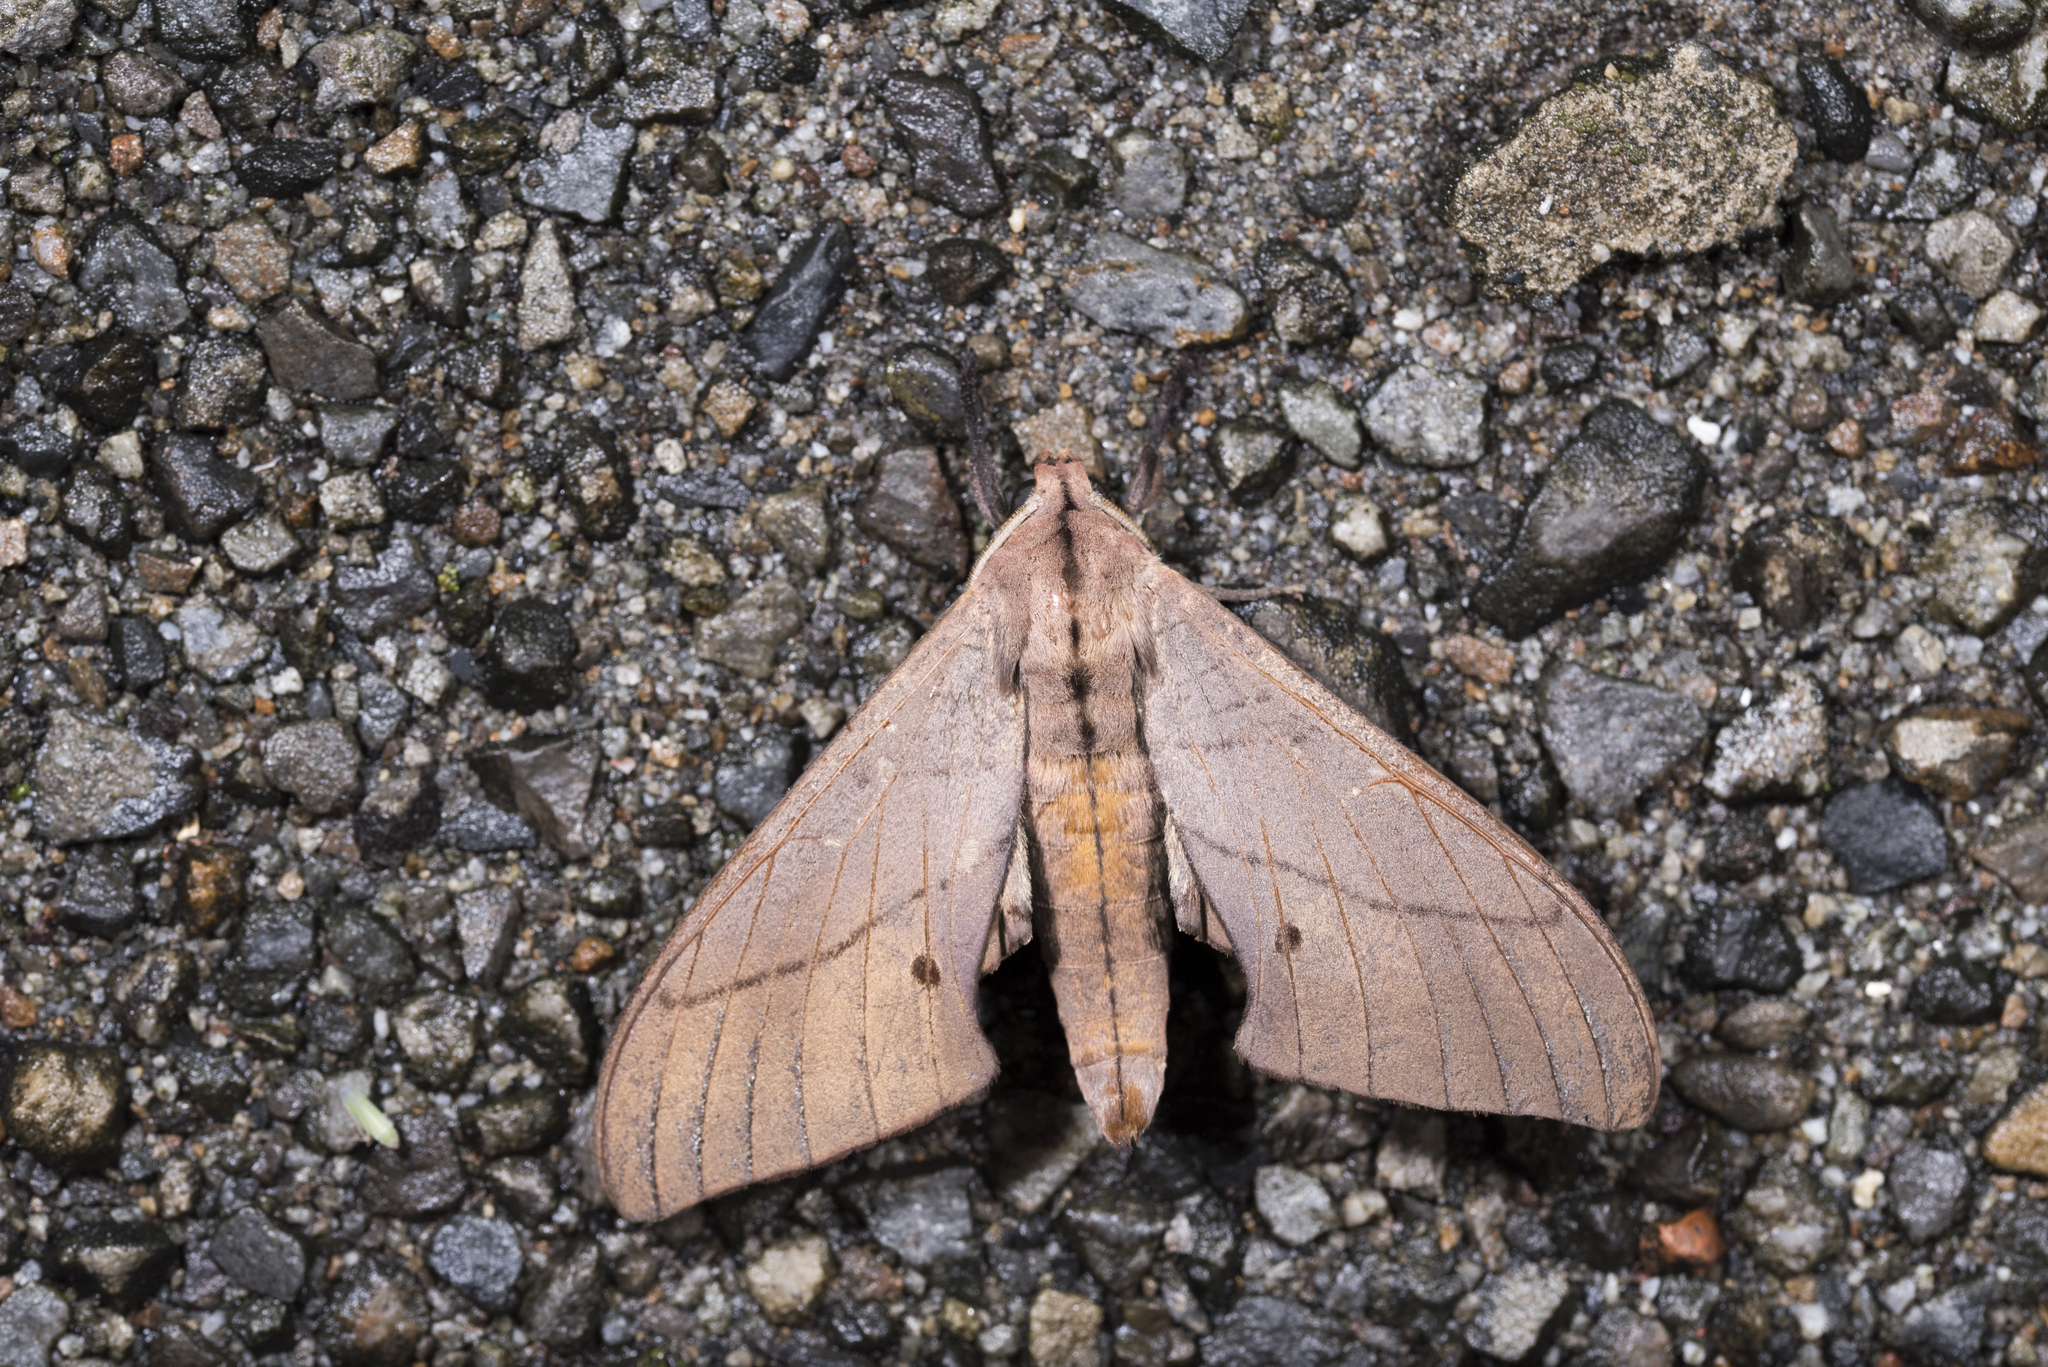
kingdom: Animalia
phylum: Arthropoda
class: Insecta
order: Lepidoptera
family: Sphingidae
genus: Marumba
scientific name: Marumba cristata
